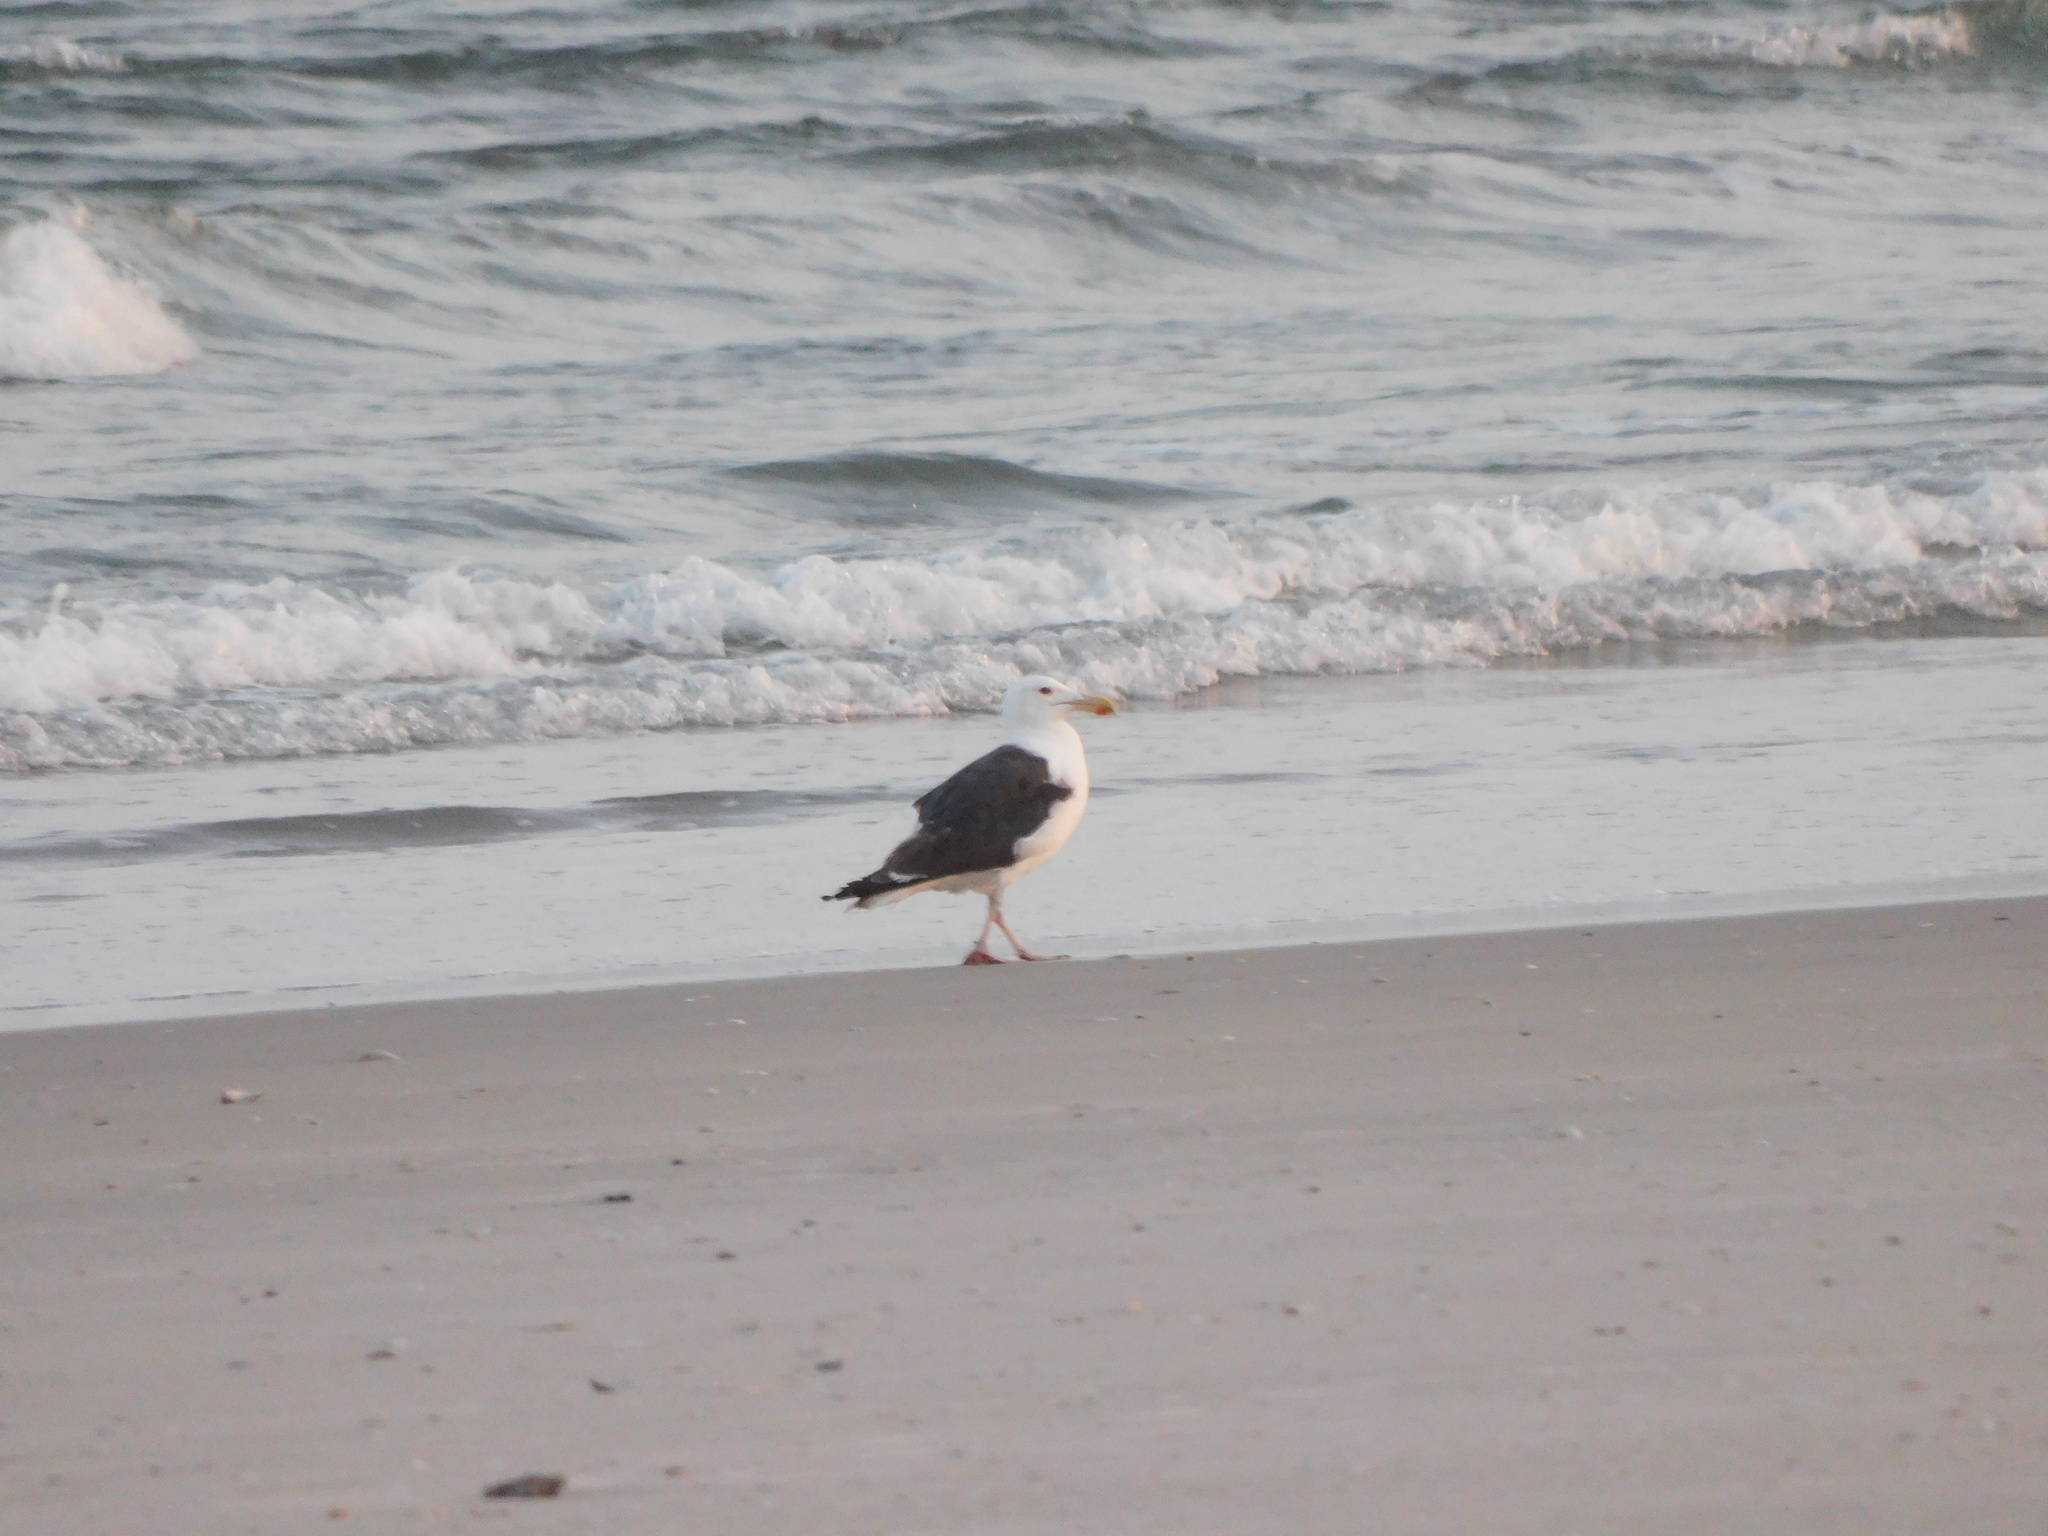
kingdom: Animalia
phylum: Chordata
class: Aves
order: Charadriiformes
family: Laridae
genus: Larus
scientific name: Larus marinus
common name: Great black-backed gull
